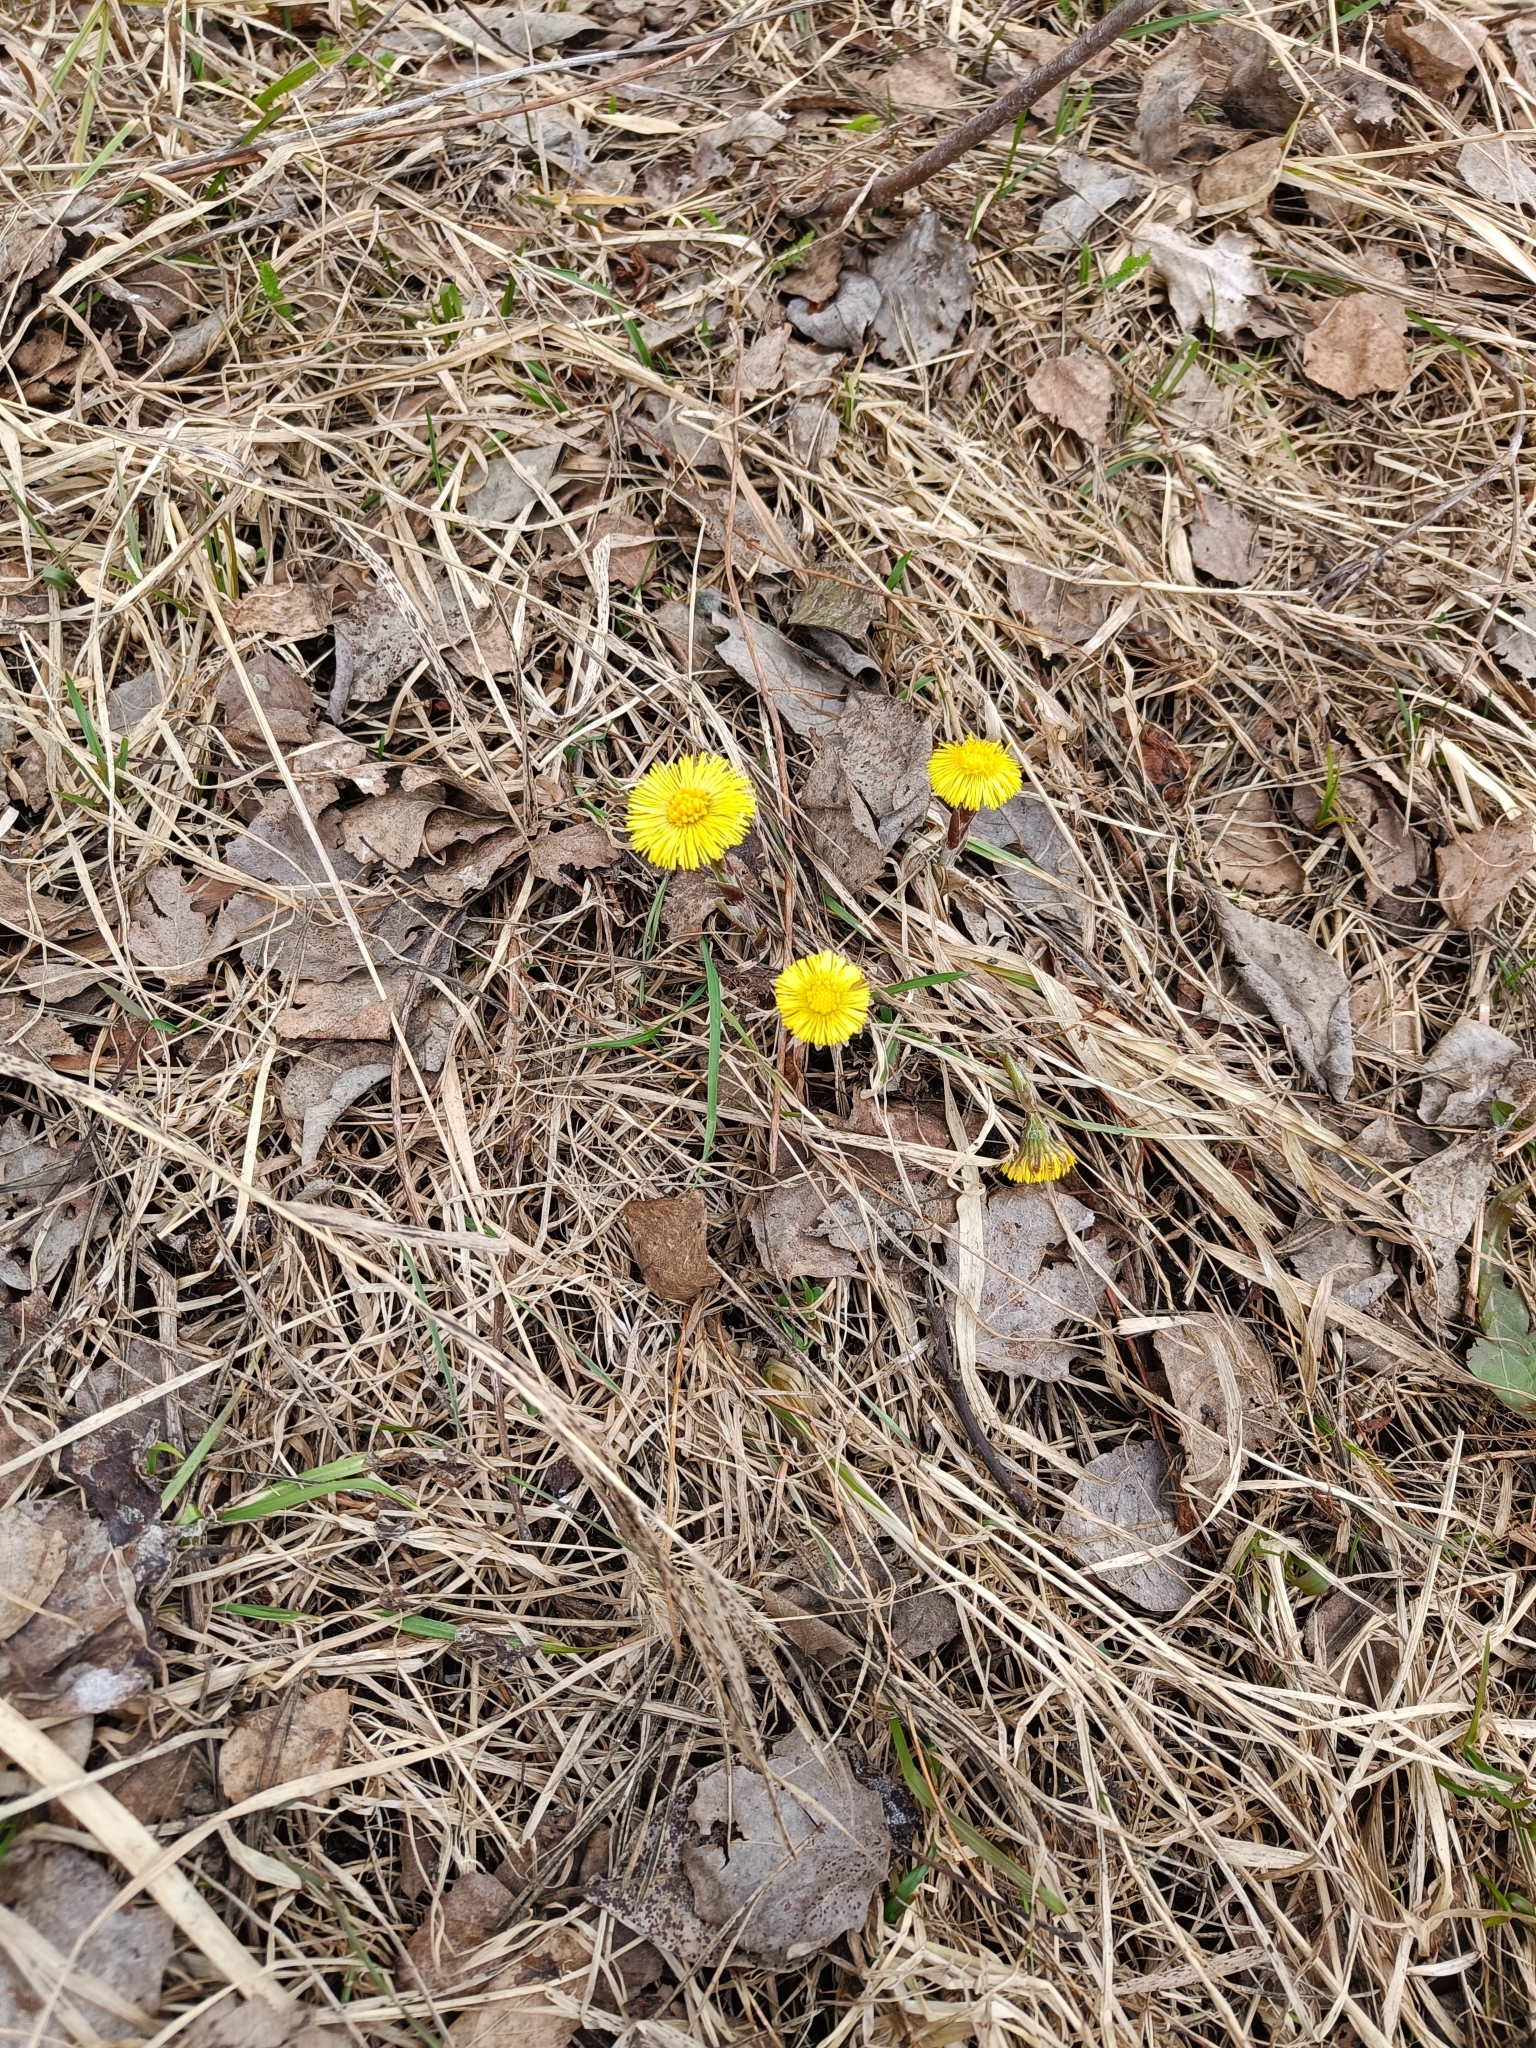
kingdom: Plantae
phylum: Tracheophyta
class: Magnoliopsida
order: Asterales
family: Asteraceae
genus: Tussilago
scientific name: Tussilago farfara
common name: Coltsfoot
